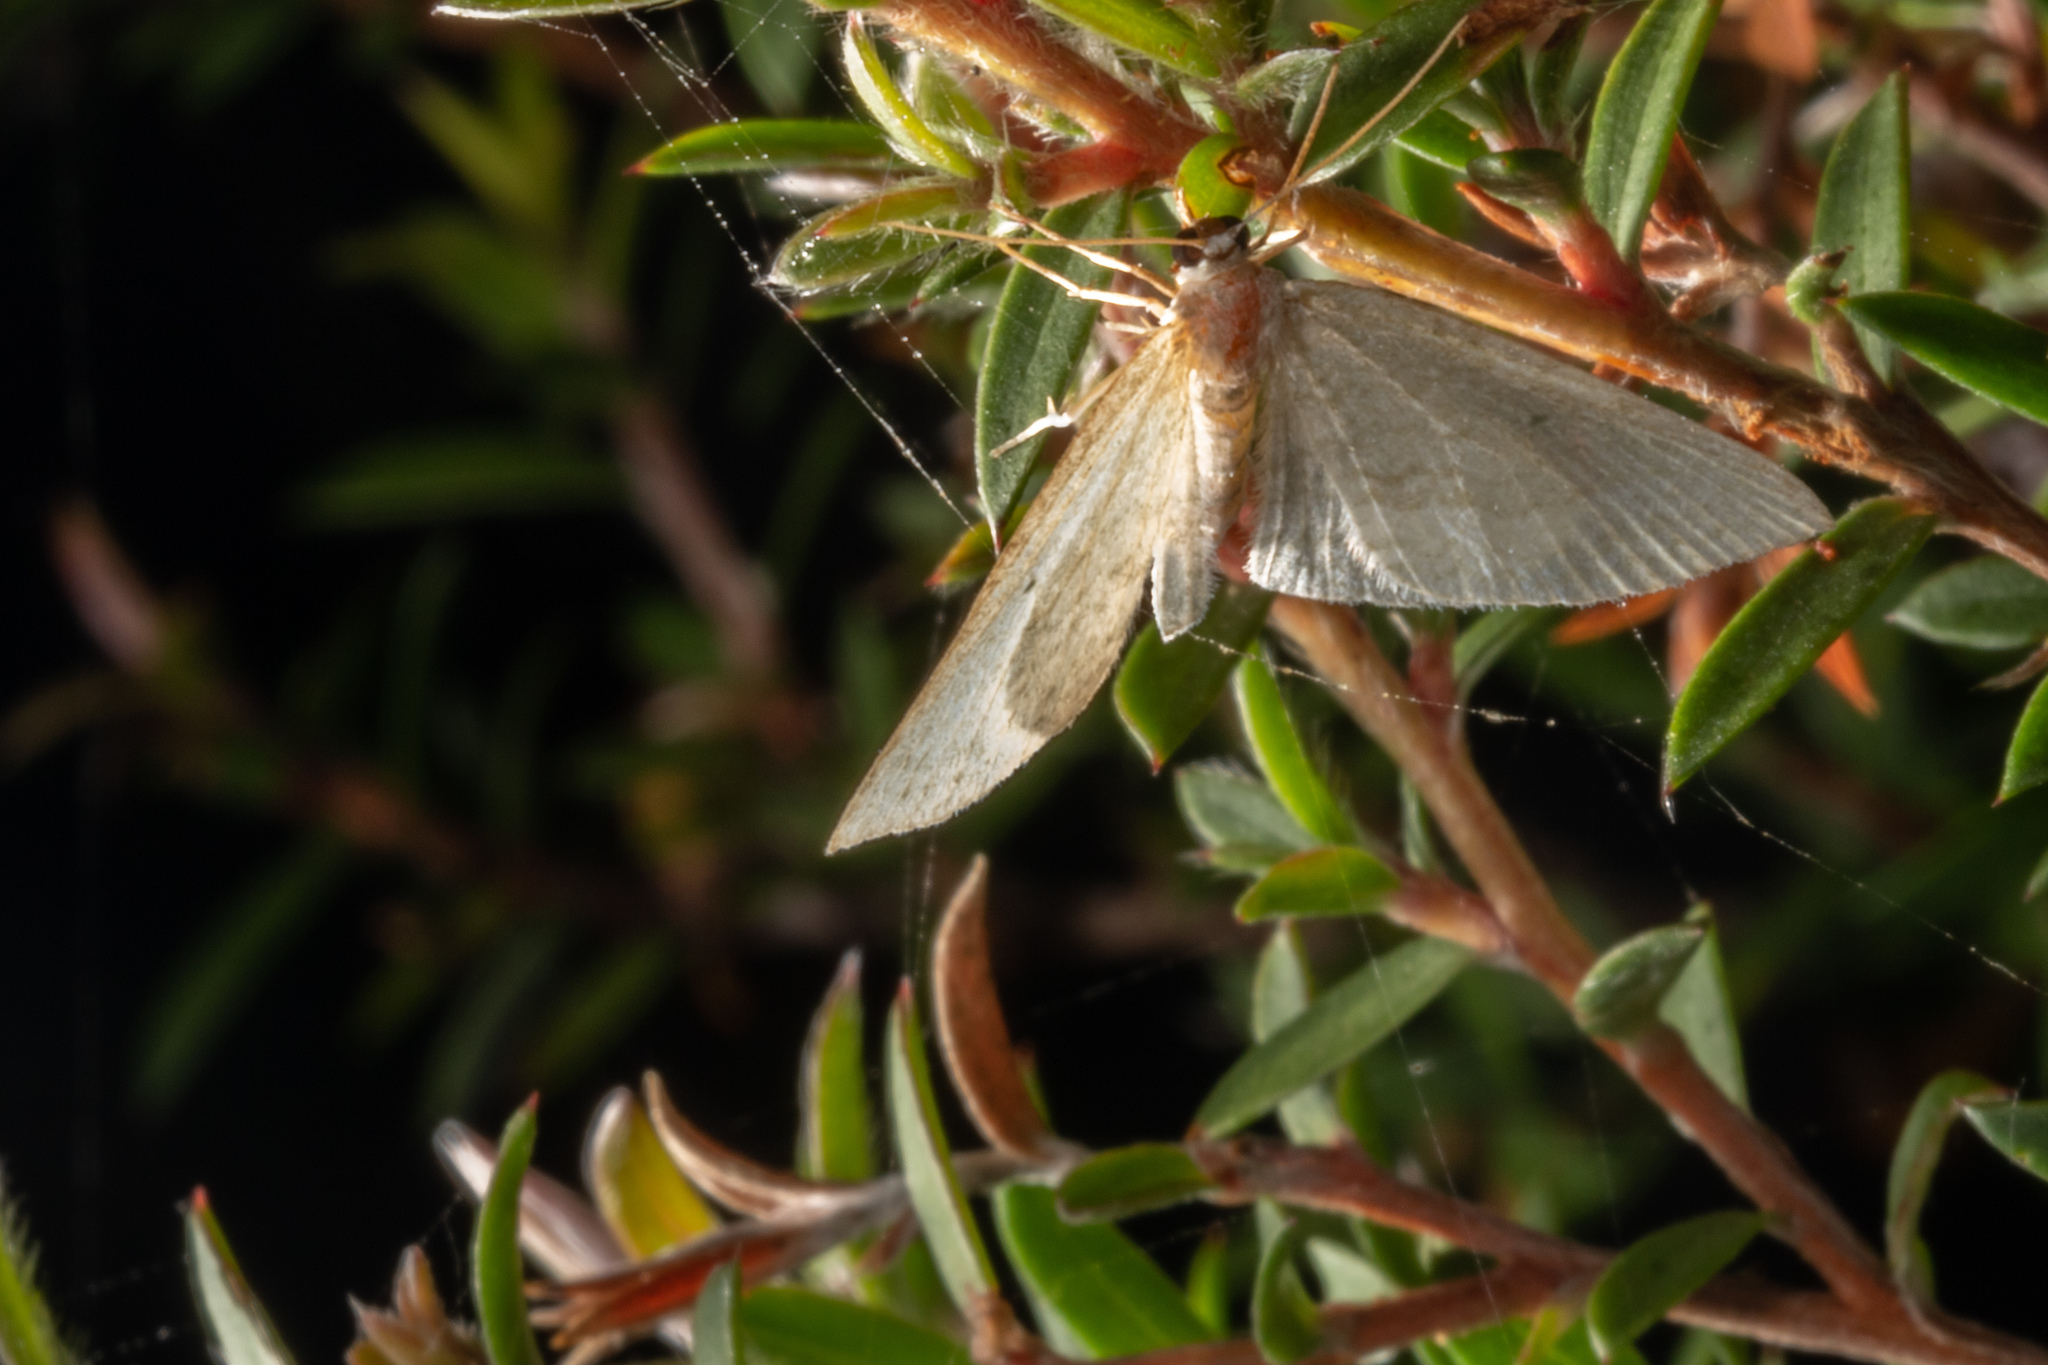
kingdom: Animalia
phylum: Arthropoda
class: Insecta
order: Lepidoptera
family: Geometridae
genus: Poecilasthena
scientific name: Poecilasthena pulchraria
